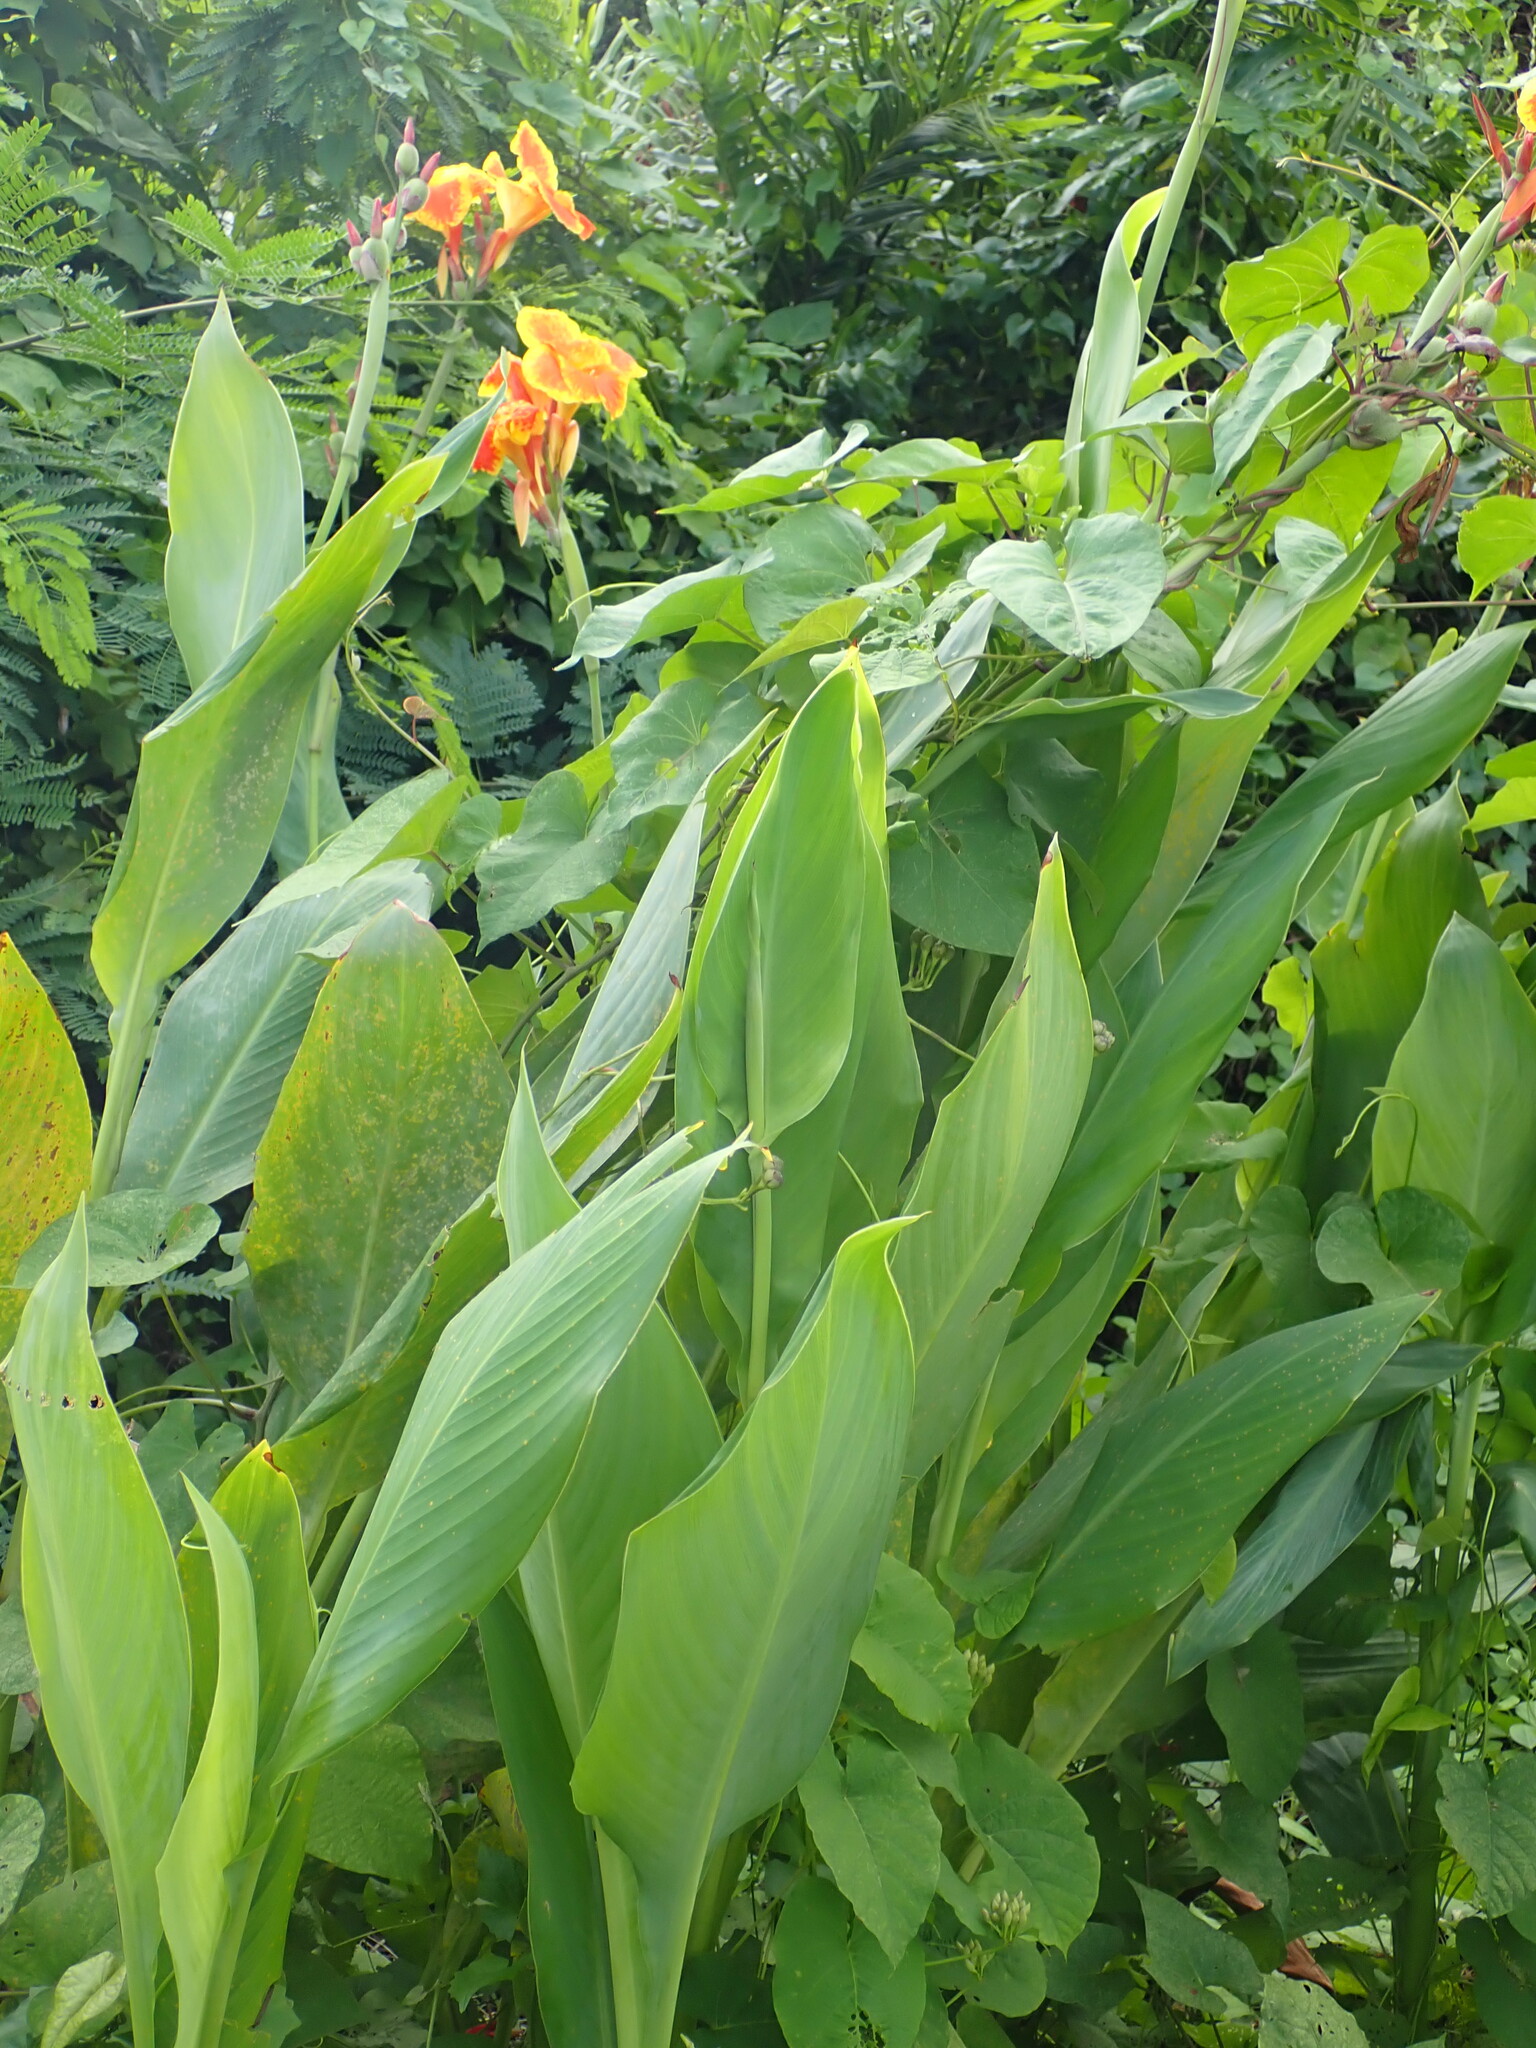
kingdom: Plantae
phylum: Tracheophyta
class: Liliopsida
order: Zingiberales
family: Cannaceae
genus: Canna
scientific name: Canna hybrida
